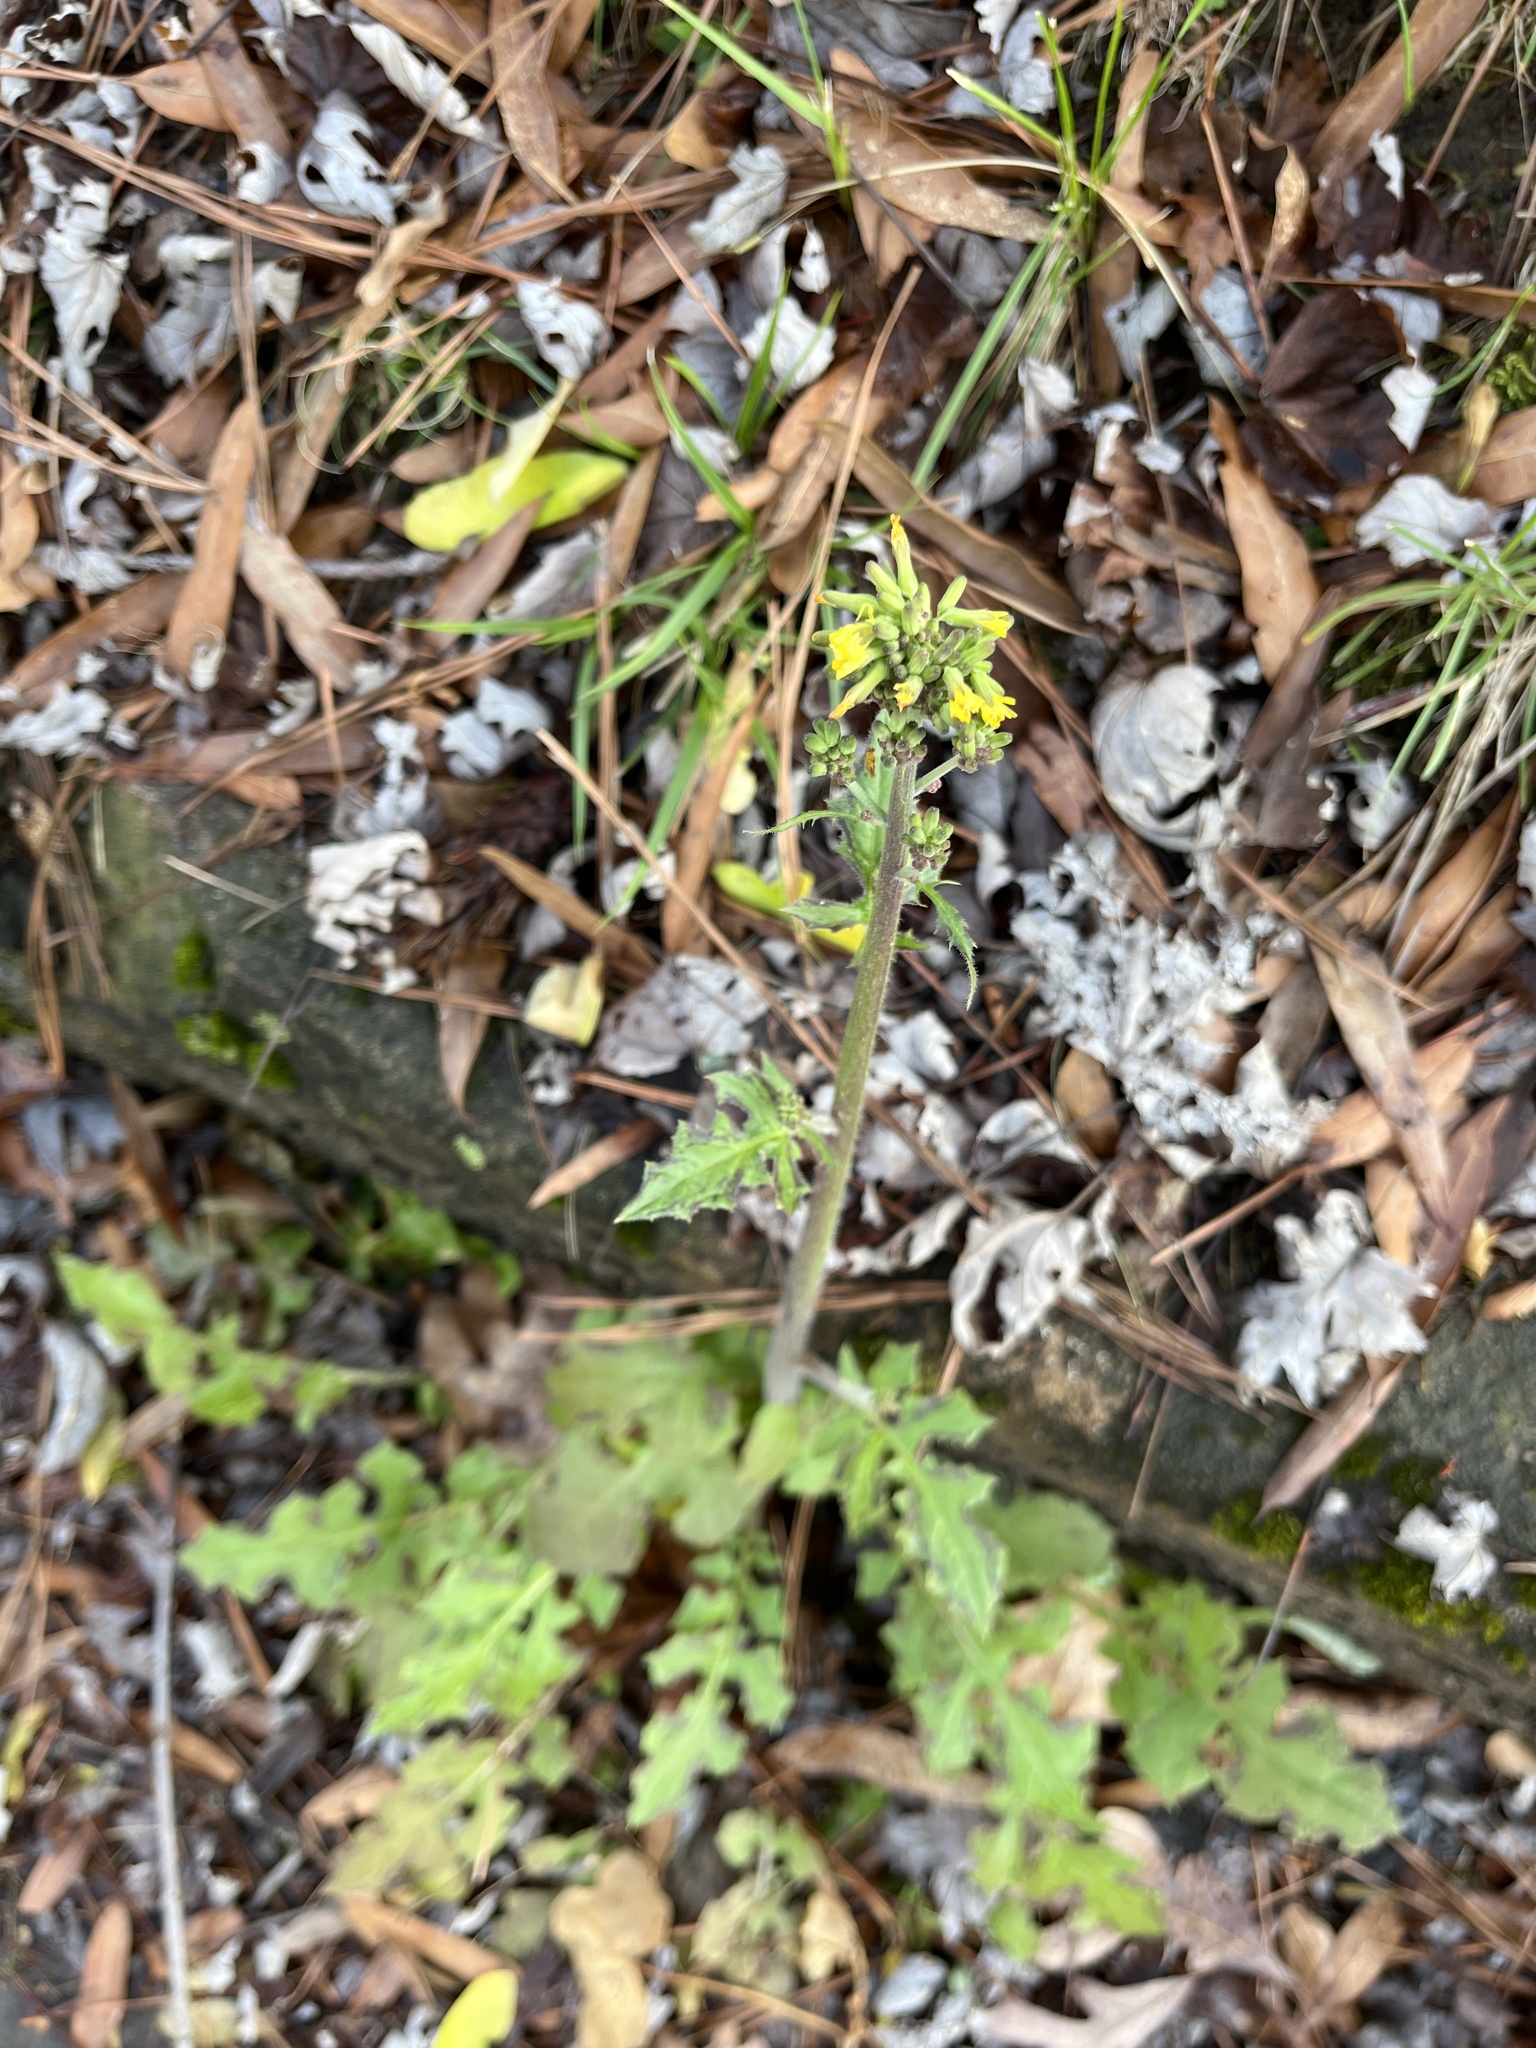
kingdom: Plantae
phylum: Tracheophyta
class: Magnoliopsida
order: Asterales
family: Asteraceae
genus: Youngia
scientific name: Youngia japonica
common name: Oriental false hawksbeard
